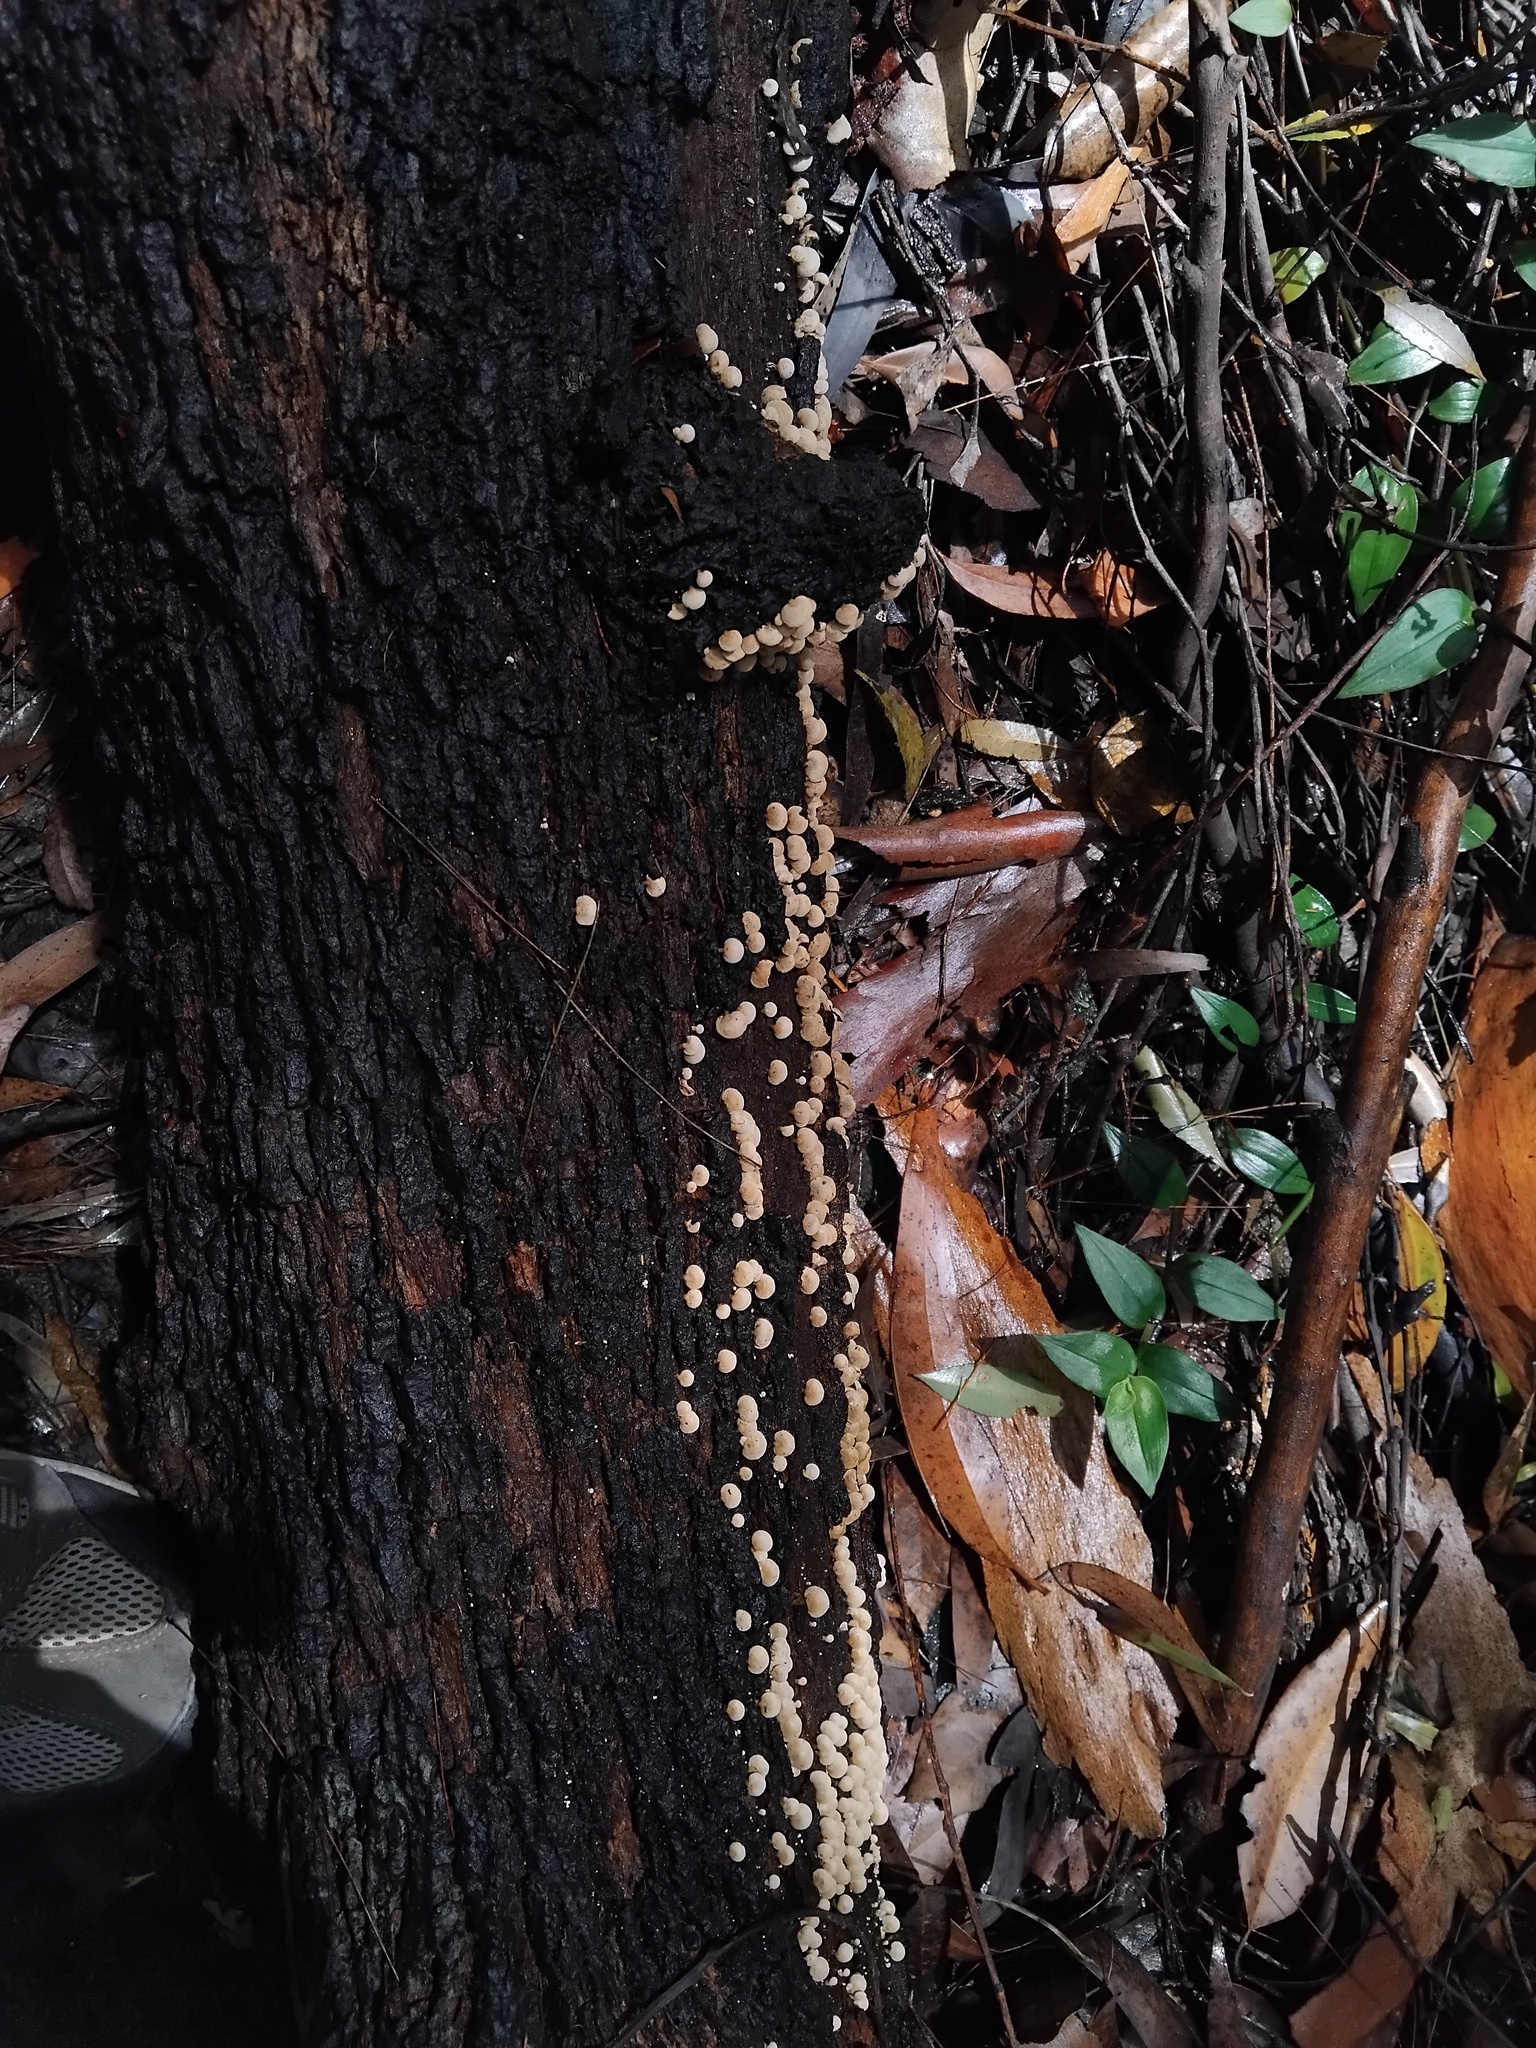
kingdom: Fungi
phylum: Basidiomycota
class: Agaricomycetes
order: Agaricales
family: Mycenaceae
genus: Panellus
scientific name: Panellus luxfilamentus
